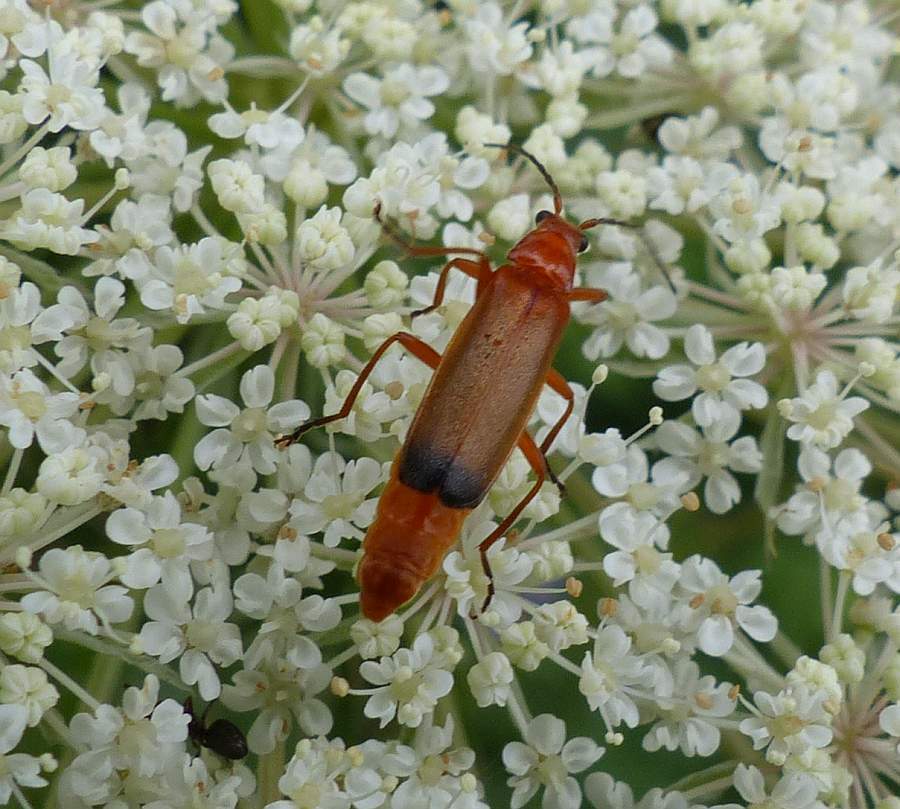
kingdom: Animalia
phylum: Arthropoda
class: Insecta
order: Coleoptera
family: Cantharidae
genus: Rhagonycha
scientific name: Rhagonycha fulva
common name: Common red soldier beetle
